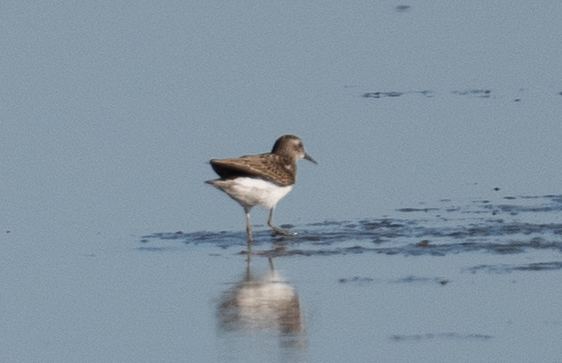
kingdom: Animalia
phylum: Chordata
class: Aves
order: Charadriiformes
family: Scolopacidae
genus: Calidris
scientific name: Calidris minutilla
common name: Least sandpiper
